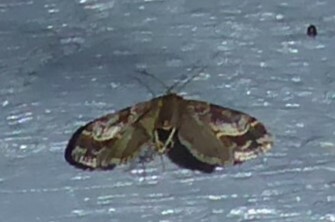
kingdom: Animalia
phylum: Arthropoda
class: Insecta
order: Lepidoptera
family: Crambidae
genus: Eudonia
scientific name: Eudonia legnota
